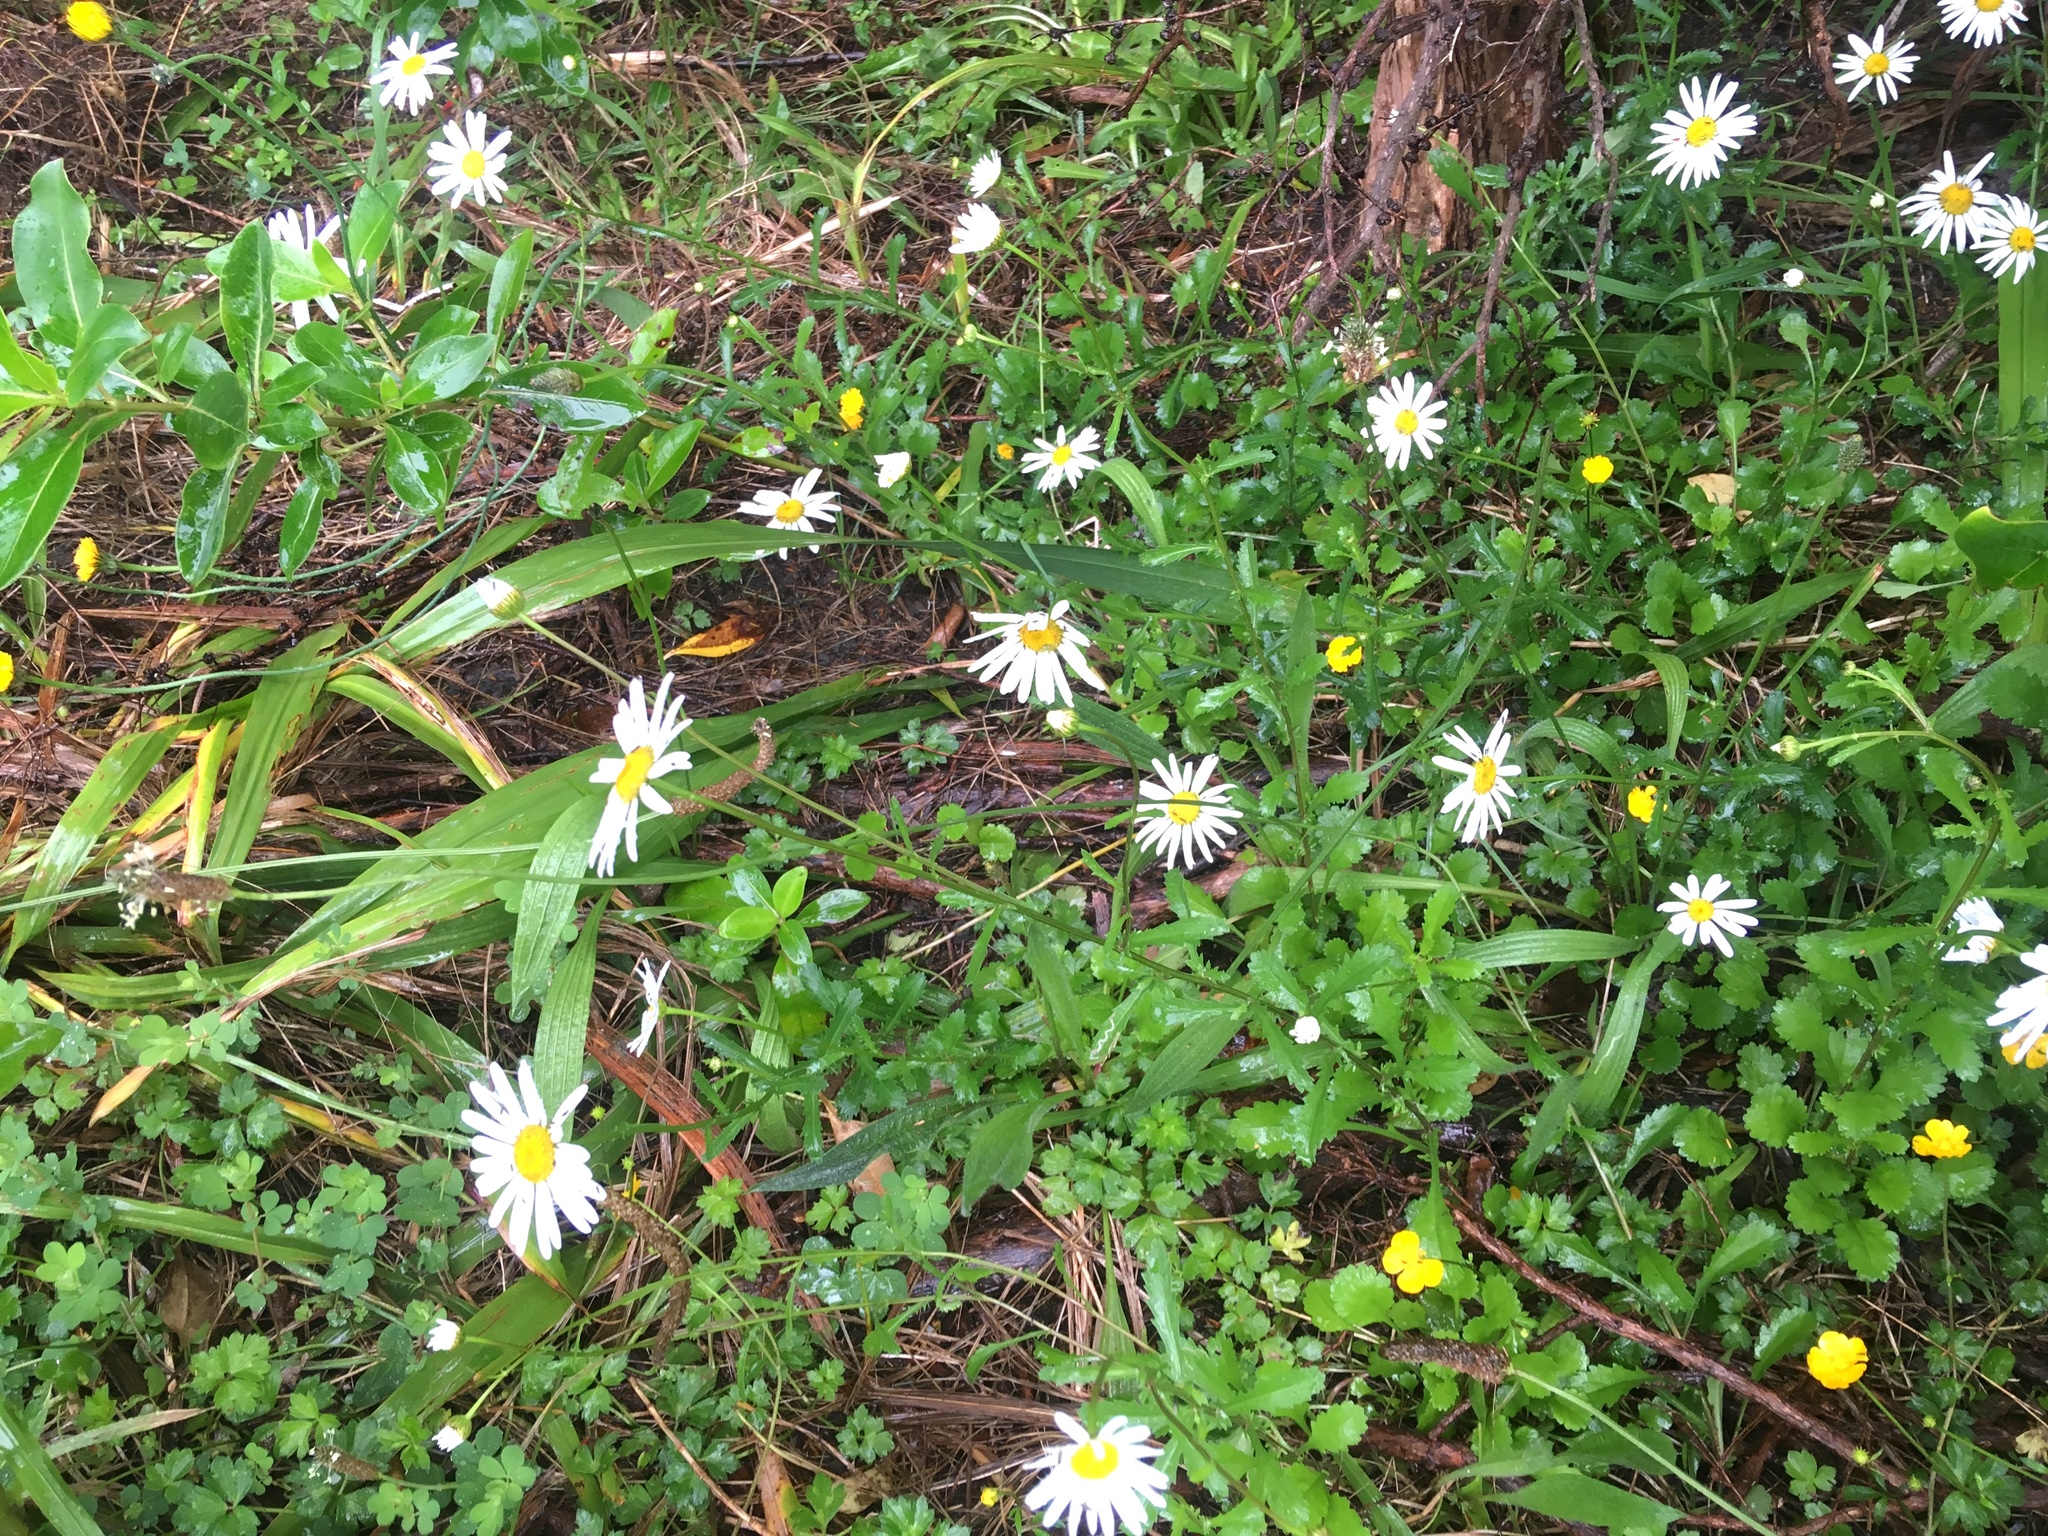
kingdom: Plantae
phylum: Tracheophyta
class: Magnoliopsida
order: Asterales
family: Asteraceae
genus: Leucanthemum
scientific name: Leucanthemum vulgare
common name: Oxeye daisy
